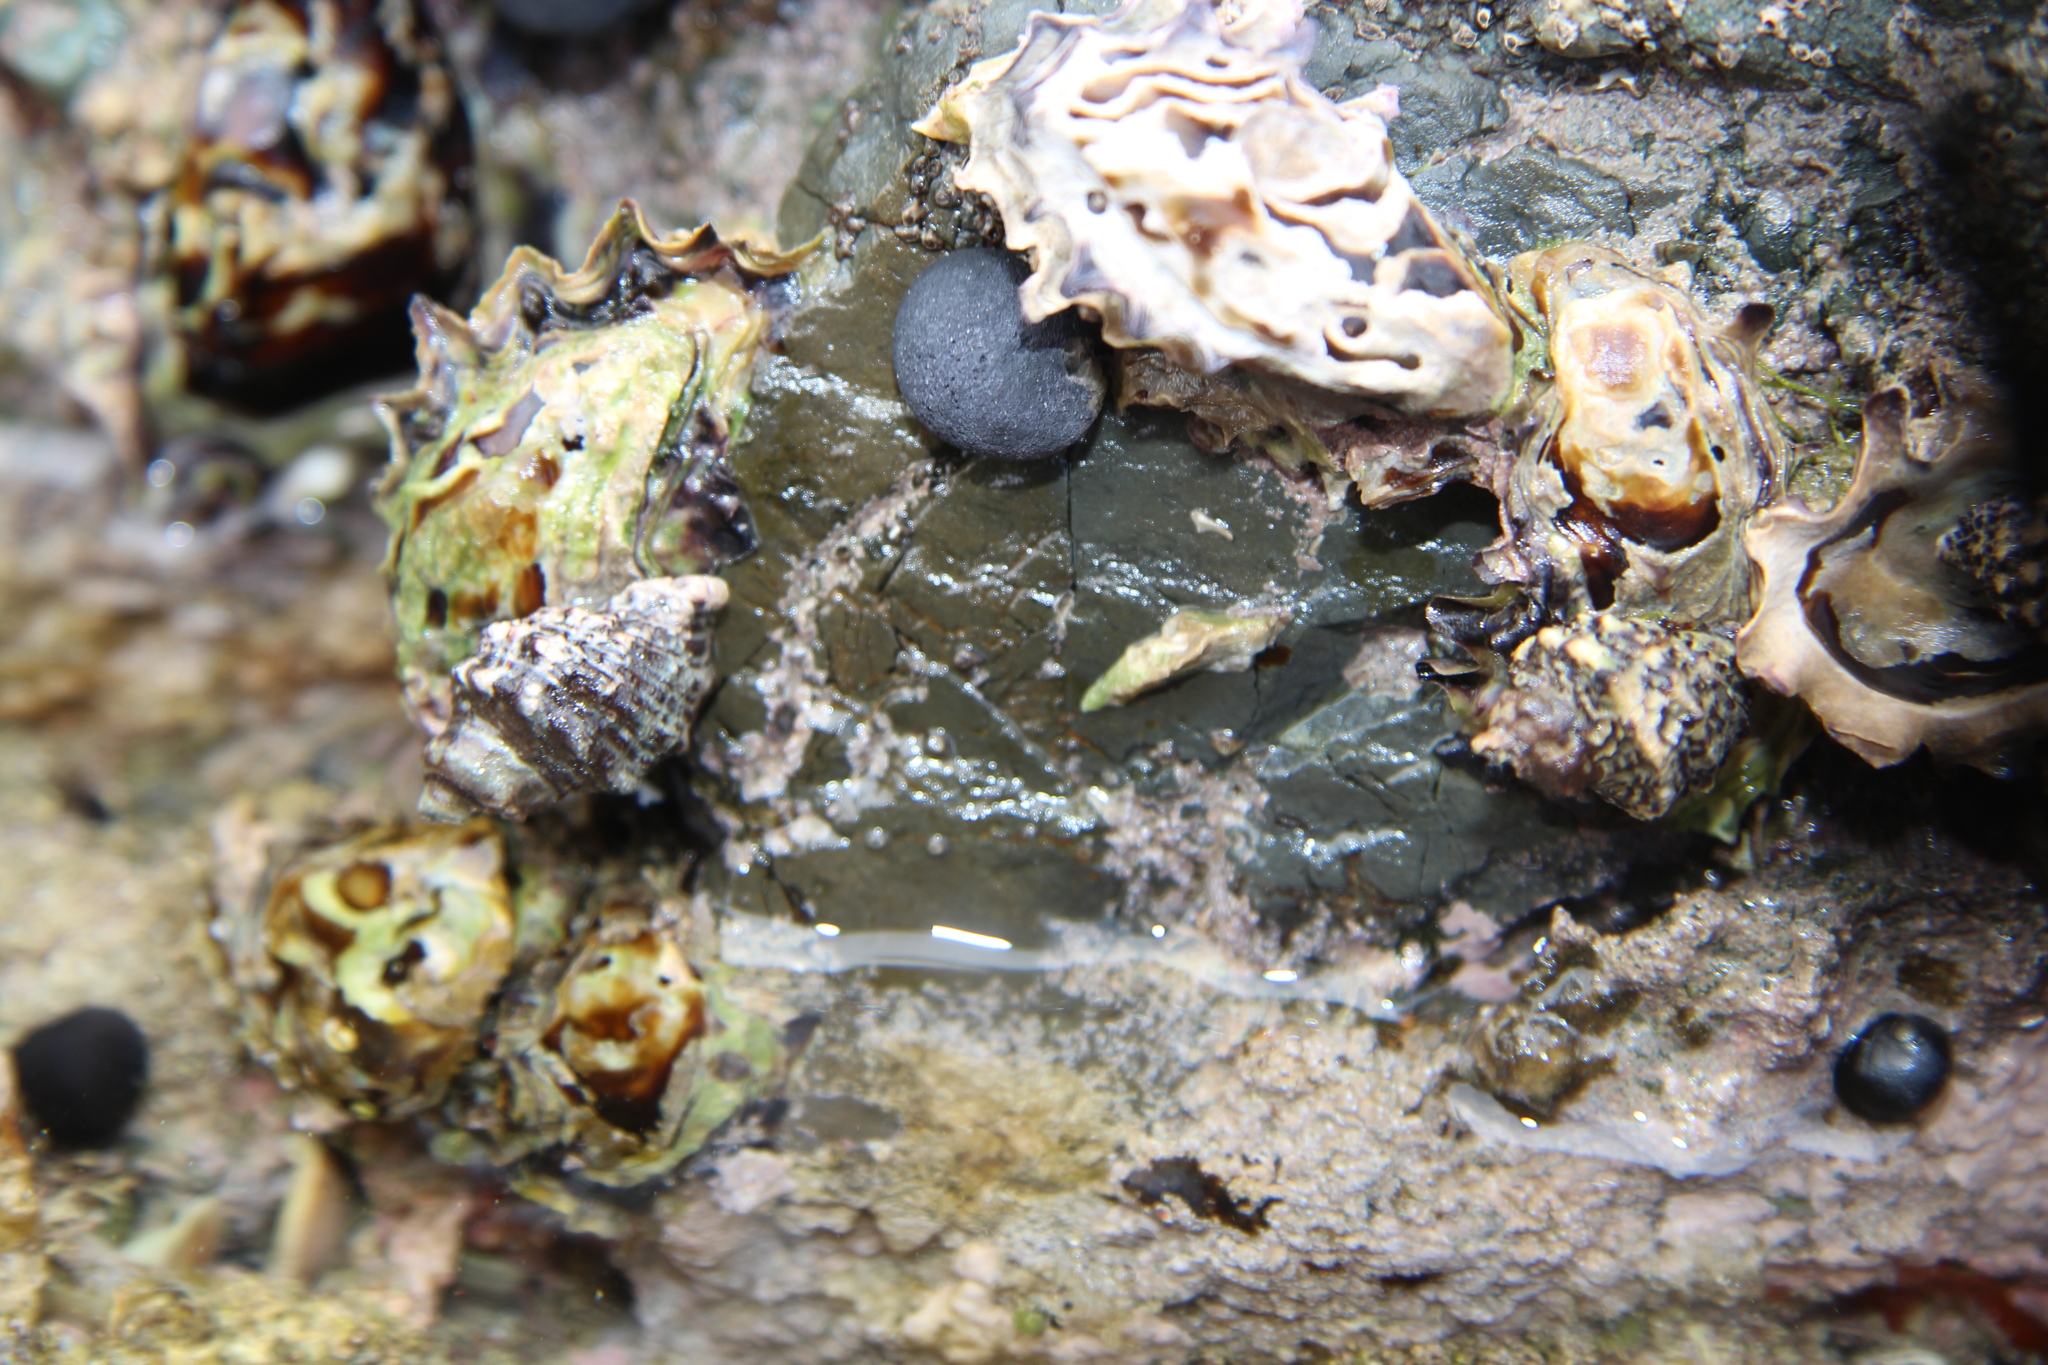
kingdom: Animalia
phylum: Mollusca
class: Gastropoda
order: Neogastropoda
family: Muricidae
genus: Haustrum
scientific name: Haustrum scobina
